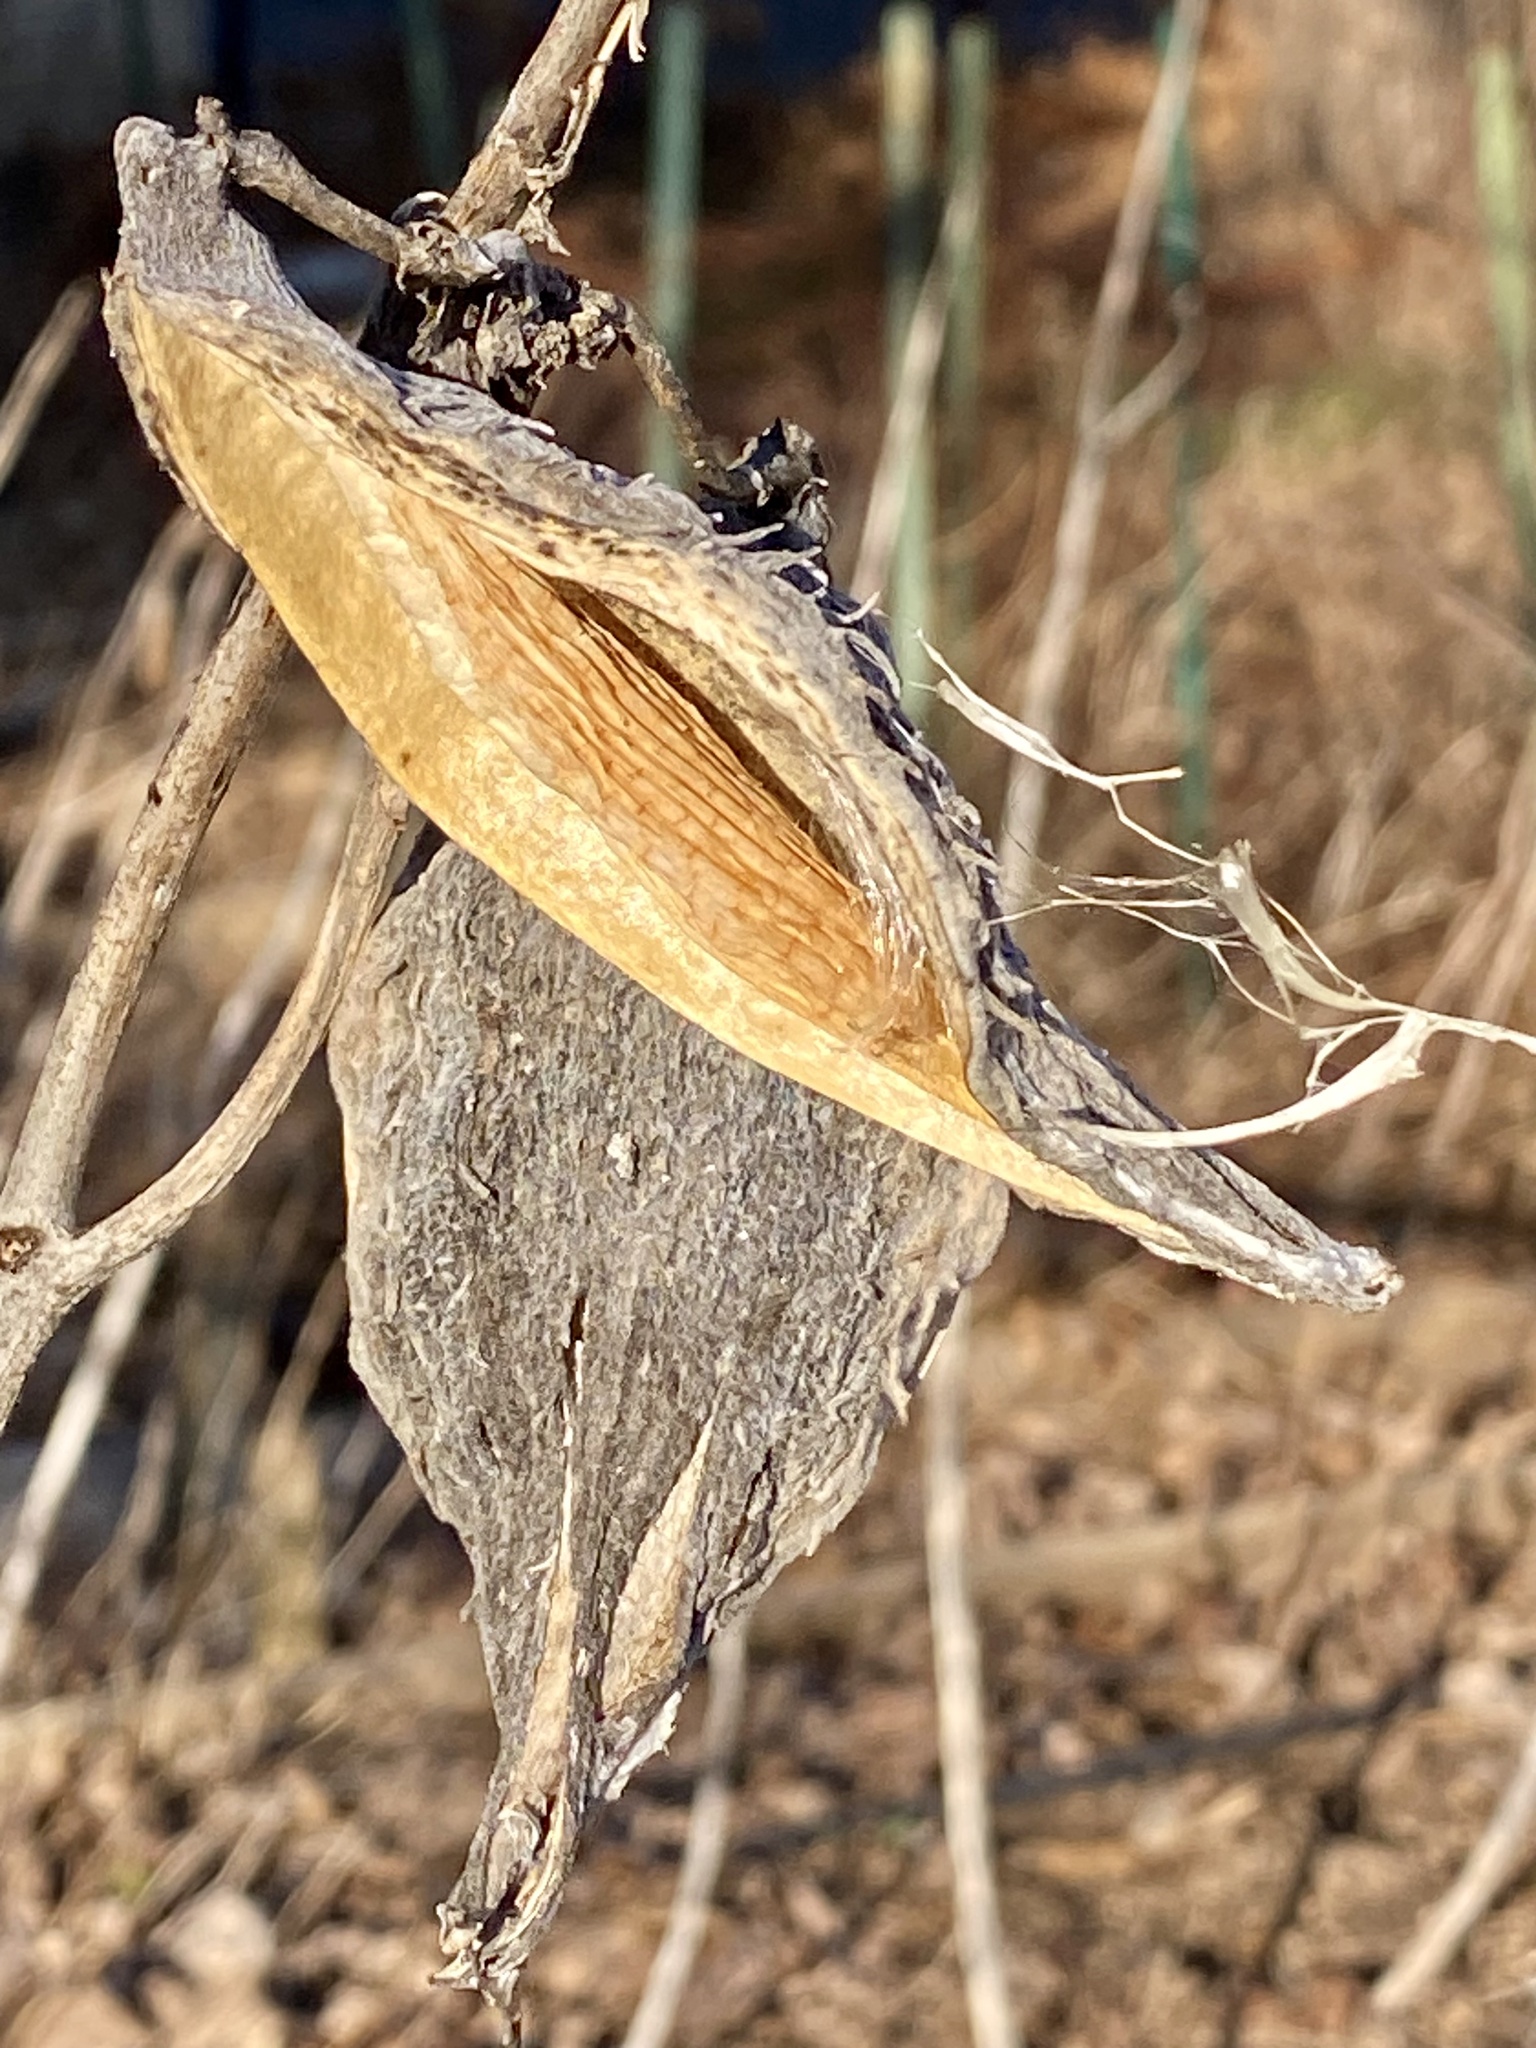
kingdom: Plantae
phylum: Tracheophyta
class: Magnoliopsida
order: Gentianales
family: Apocynaceae
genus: Asclepias
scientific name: Asclepias syriaca
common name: Common milkweed
